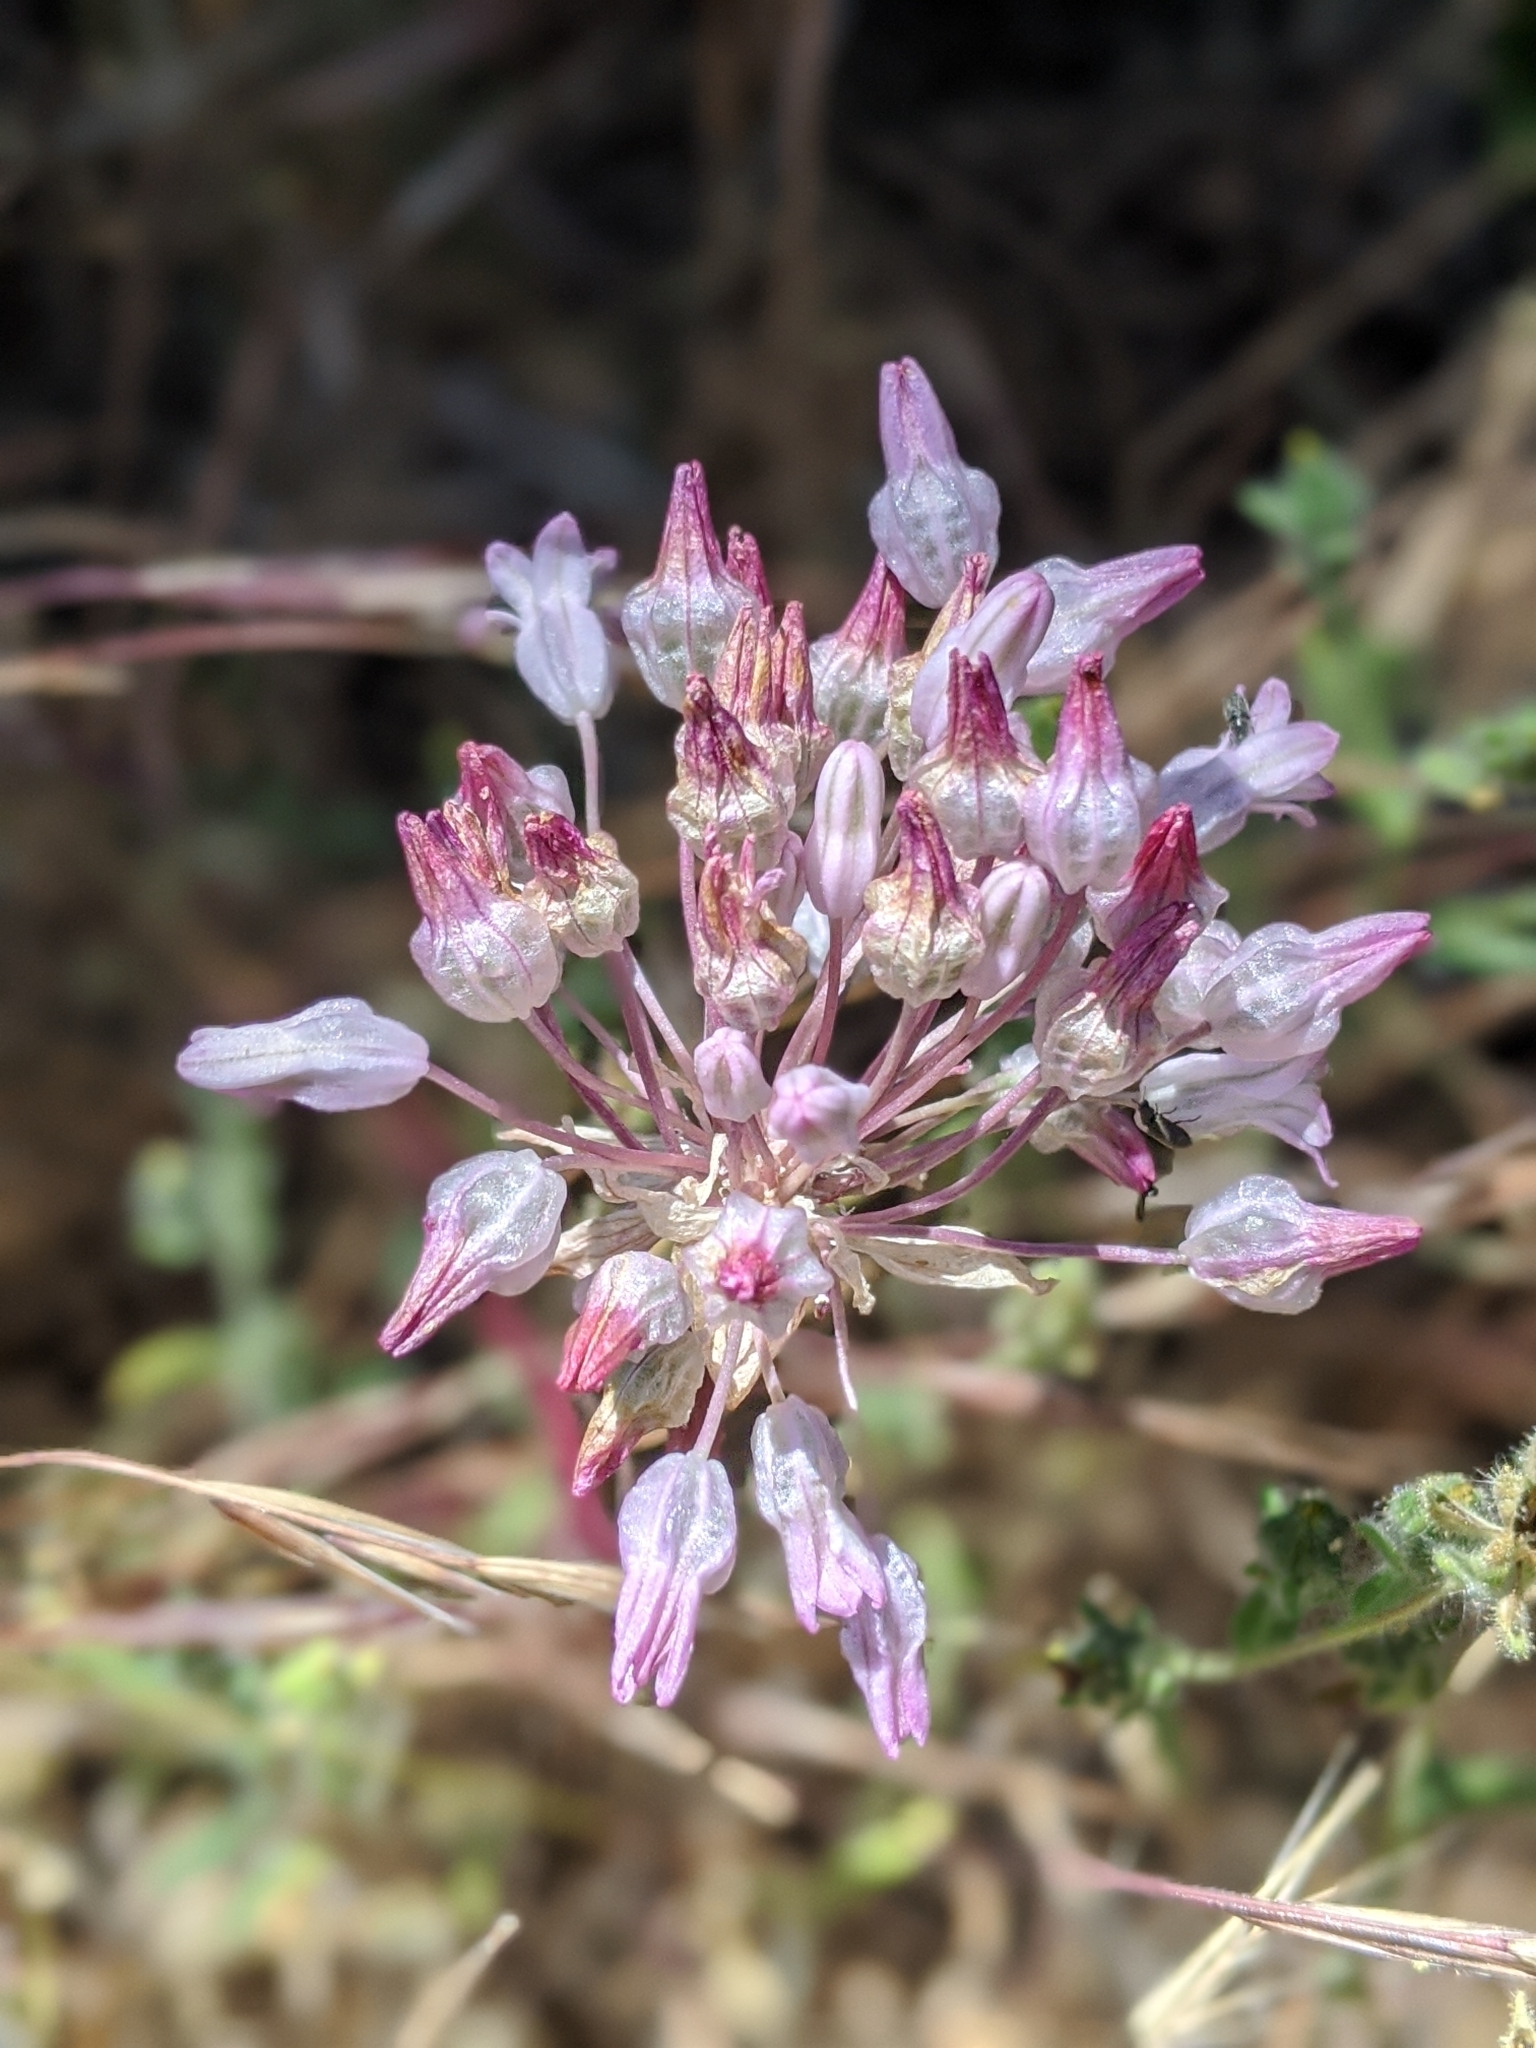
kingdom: Plantae
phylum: Tracheophyta
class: Liliopsida
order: Asparagales
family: Asparagaceae
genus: Dichelostemma
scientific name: Dichelostemma volubile
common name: Trining brodiaea
